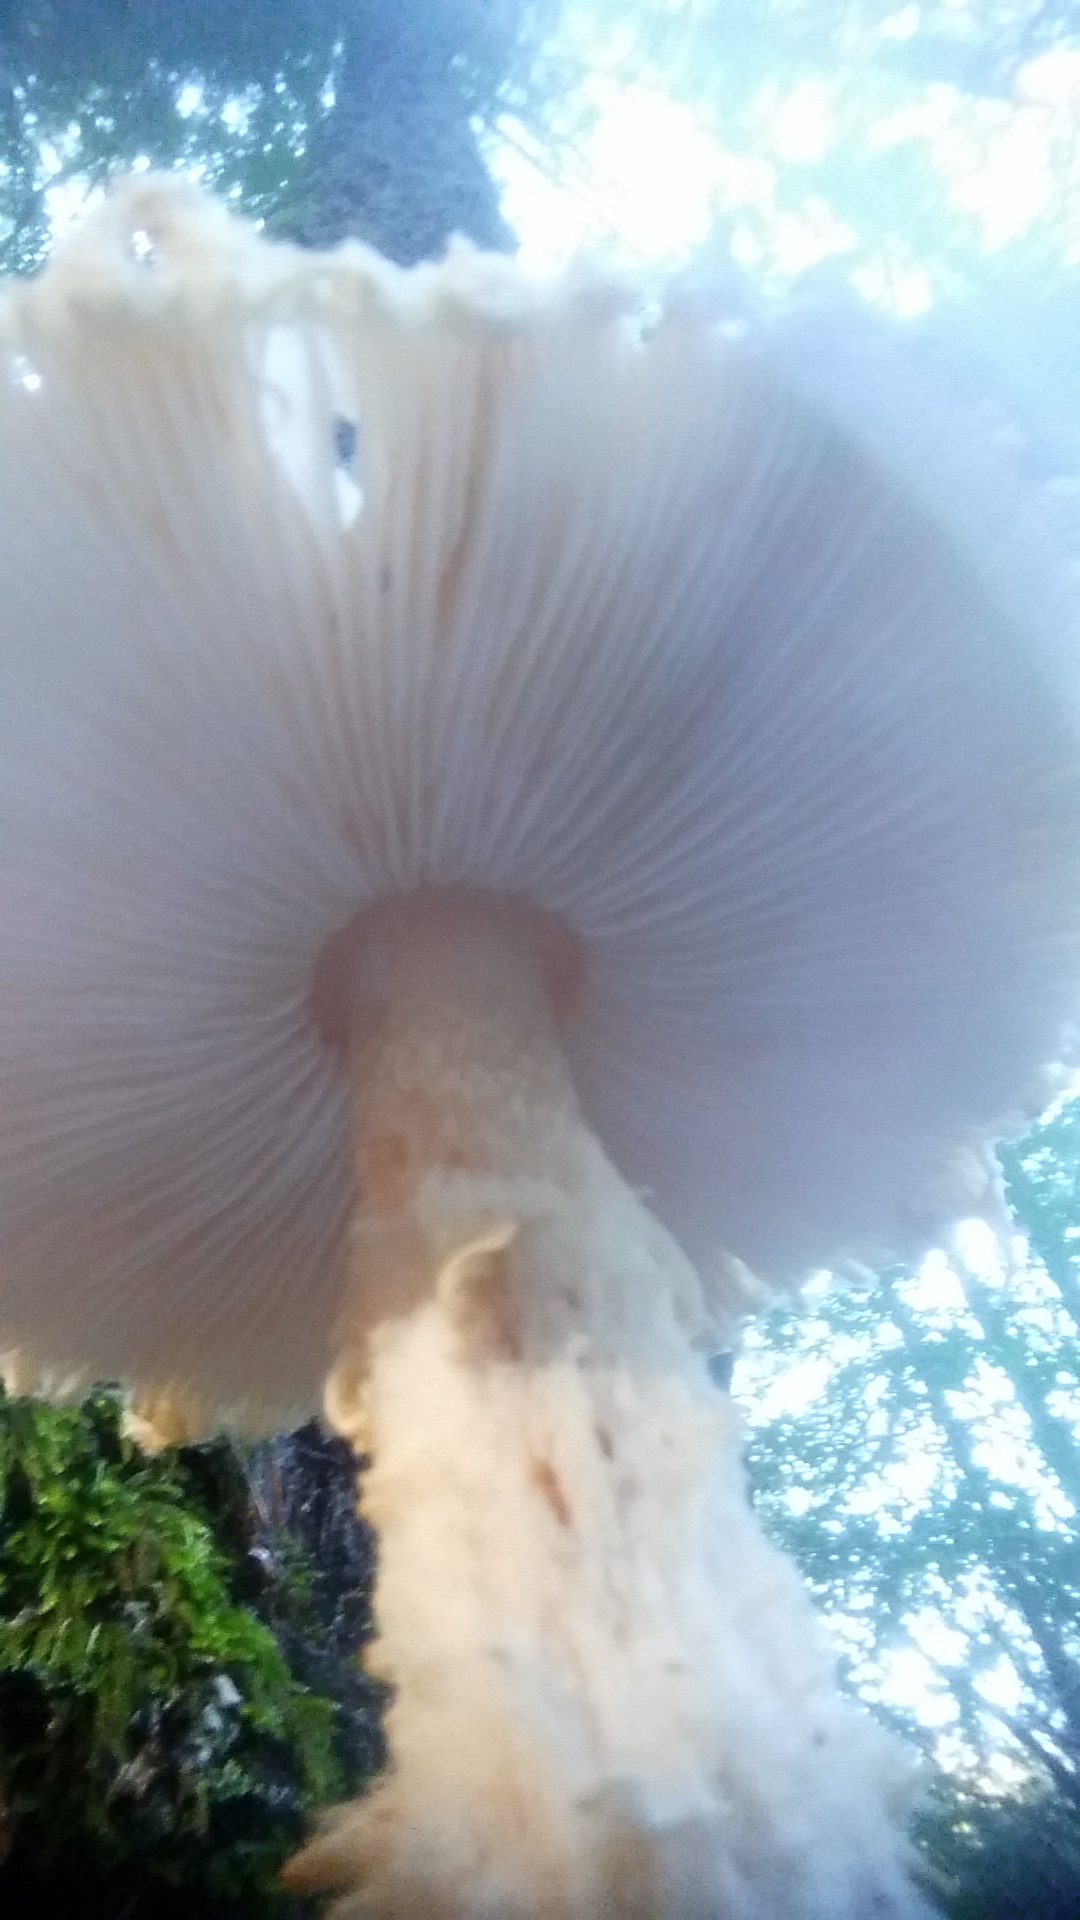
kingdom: Fungi
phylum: Basidiomycota
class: Agaricomycetes
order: Agaricales
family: Agaricaceae
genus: Lepiota
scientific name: Lepiota magnispora
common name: Yellowfoot dapperling
